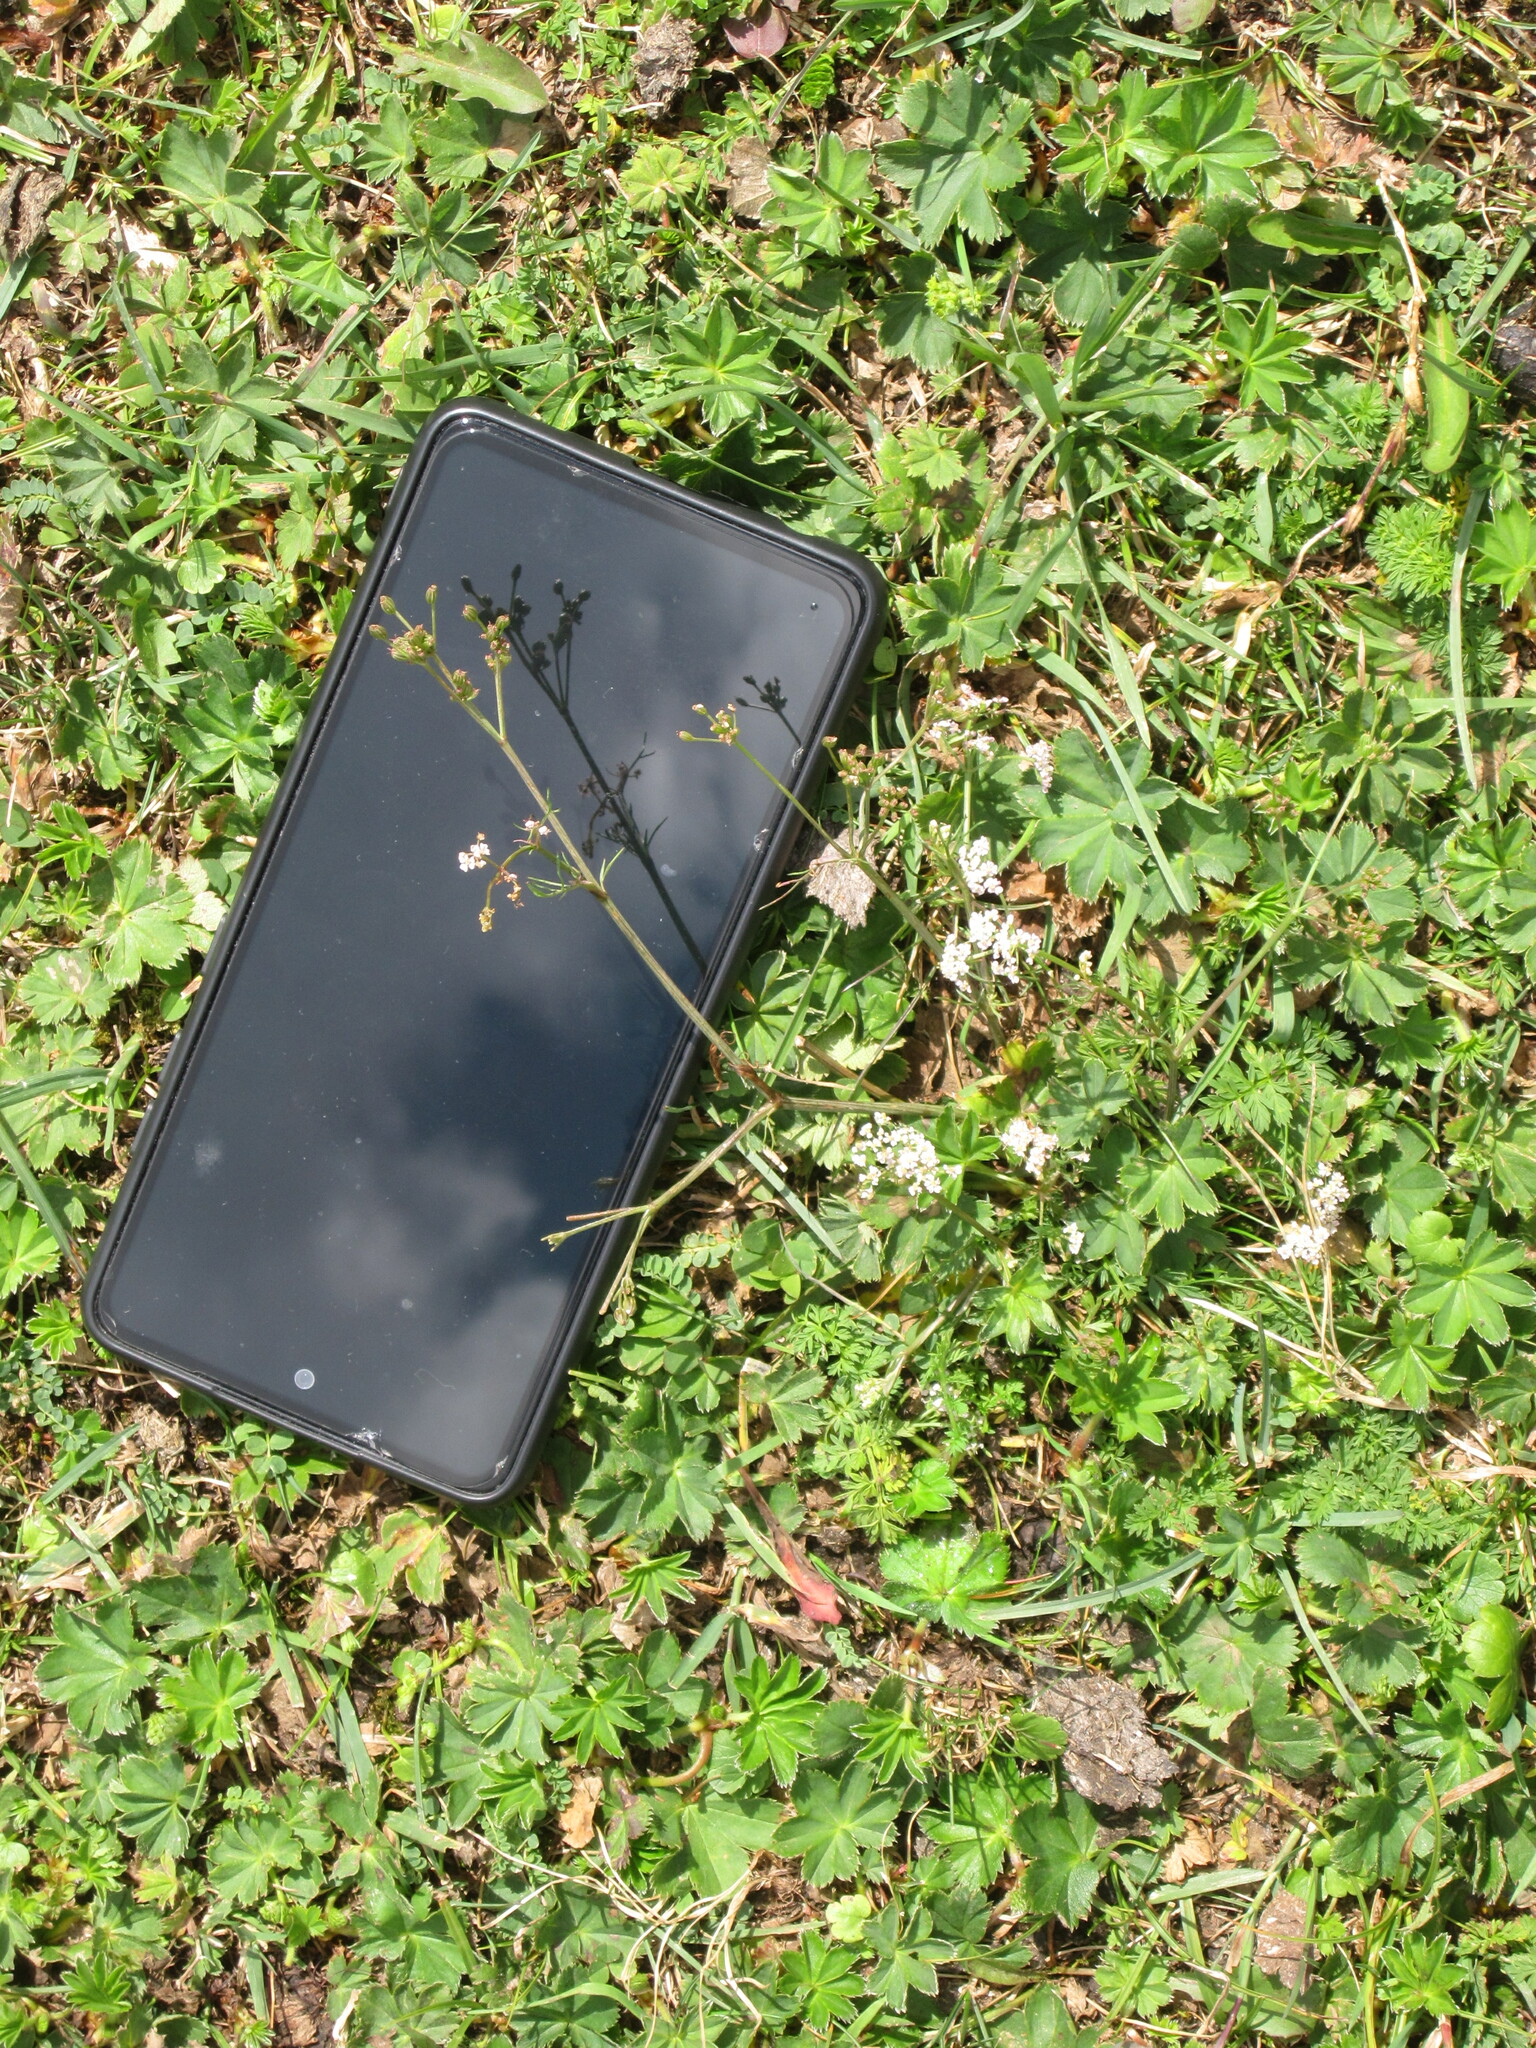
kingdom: Plantae
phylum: Tracheophyta
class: Magnoliopsida
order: Apiales
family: Apiaceae
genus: Carum
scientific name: Carum carvi
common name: Caraway
